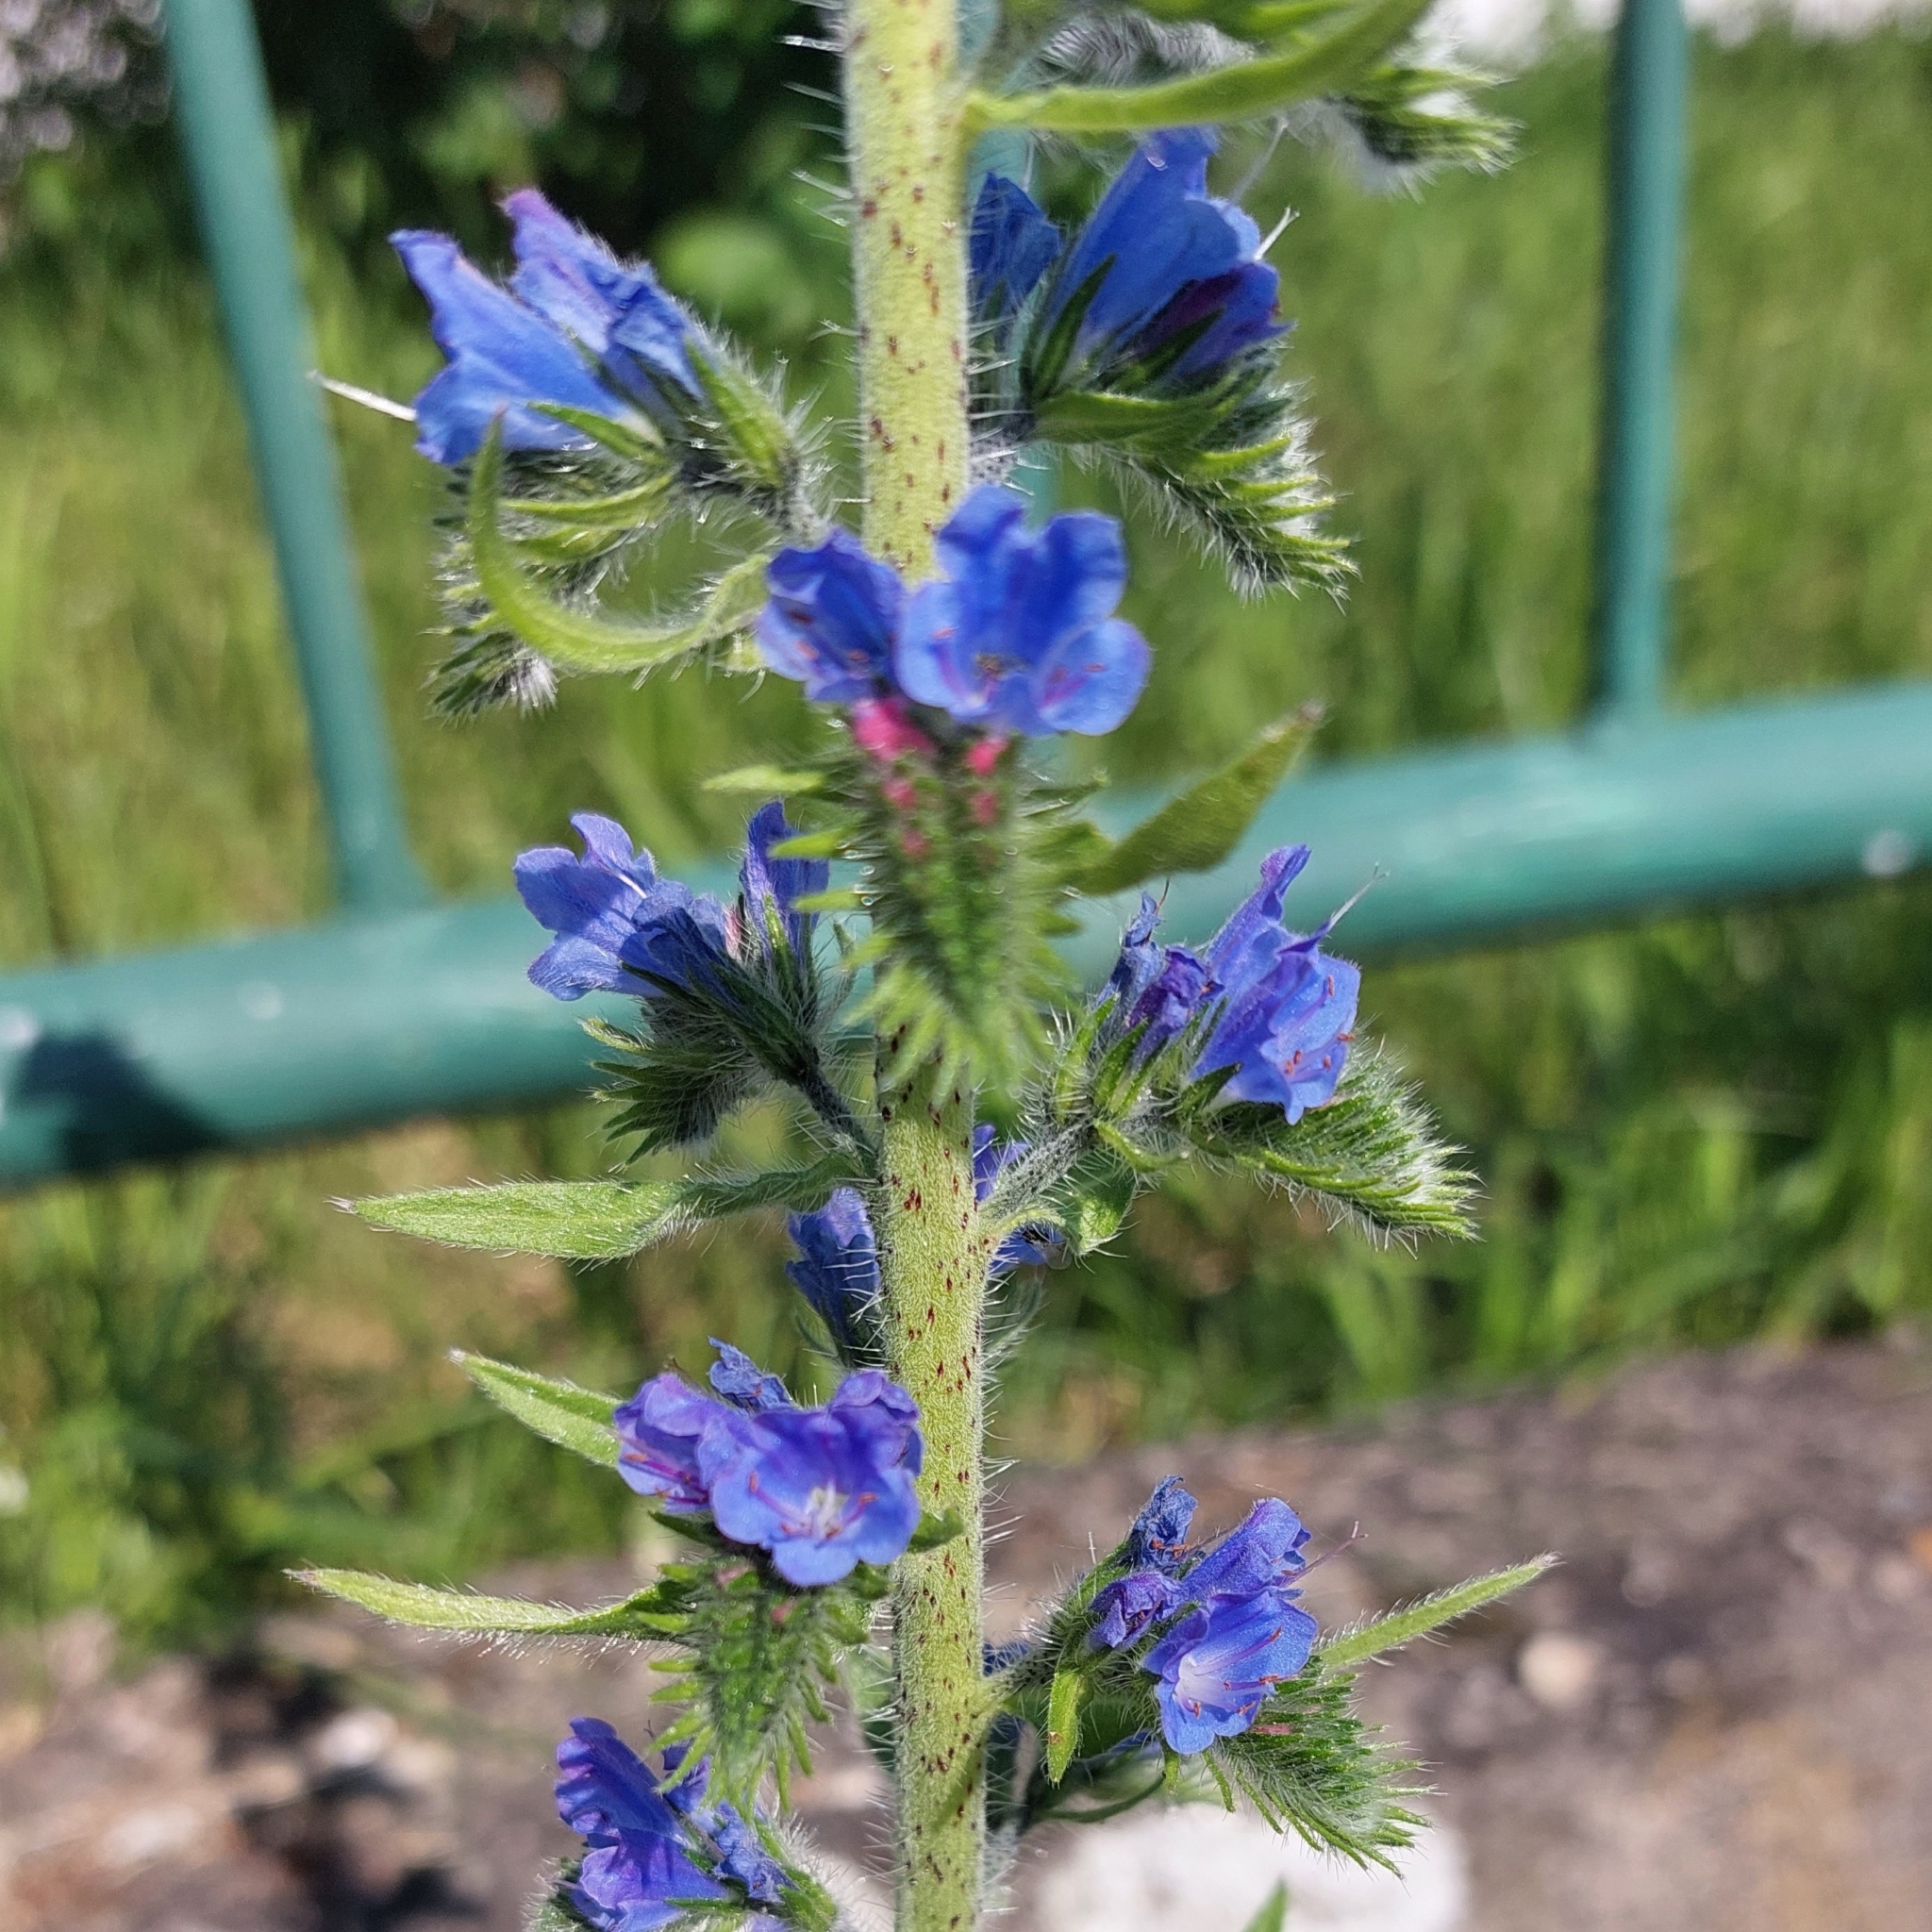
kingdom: Plantae
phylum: Tracheophyta
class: Magnoliopsida
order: Boraginales
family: Boraginaceae
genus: Echium
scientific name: Echium vulgare
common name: Common viper's bugloss
